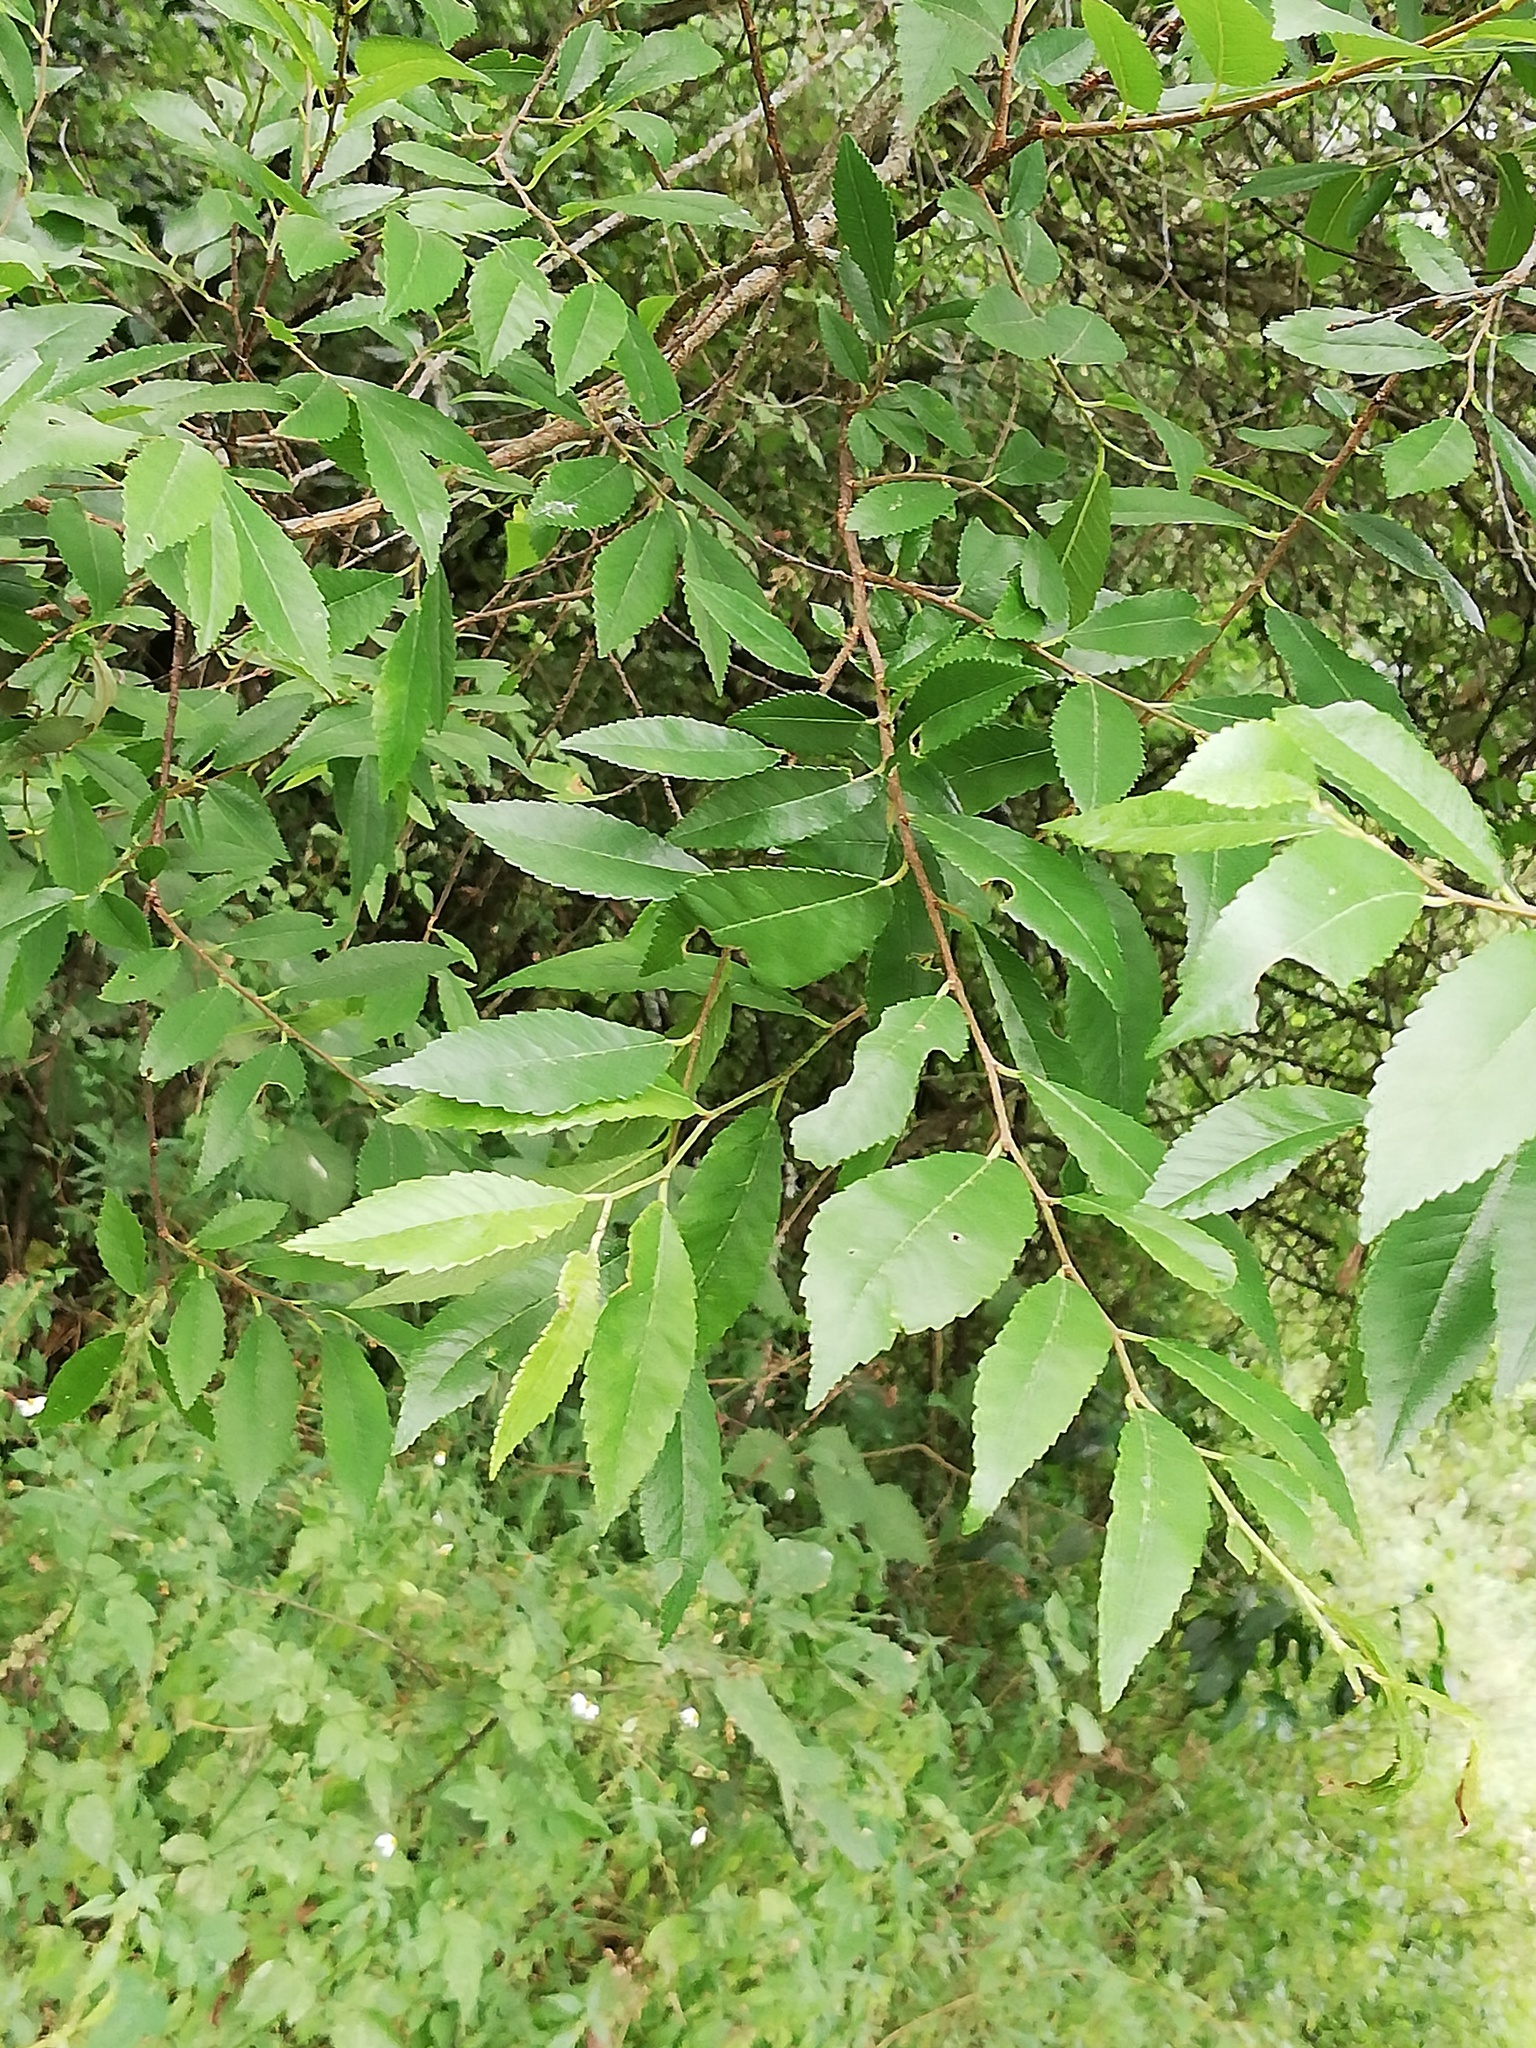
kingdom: Plantae
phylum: Tracheophyta
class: Magnoliopsida
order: Rosales
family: Ulmaceae
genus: Ulmus
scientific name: Ulmus serotina
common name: September elm
